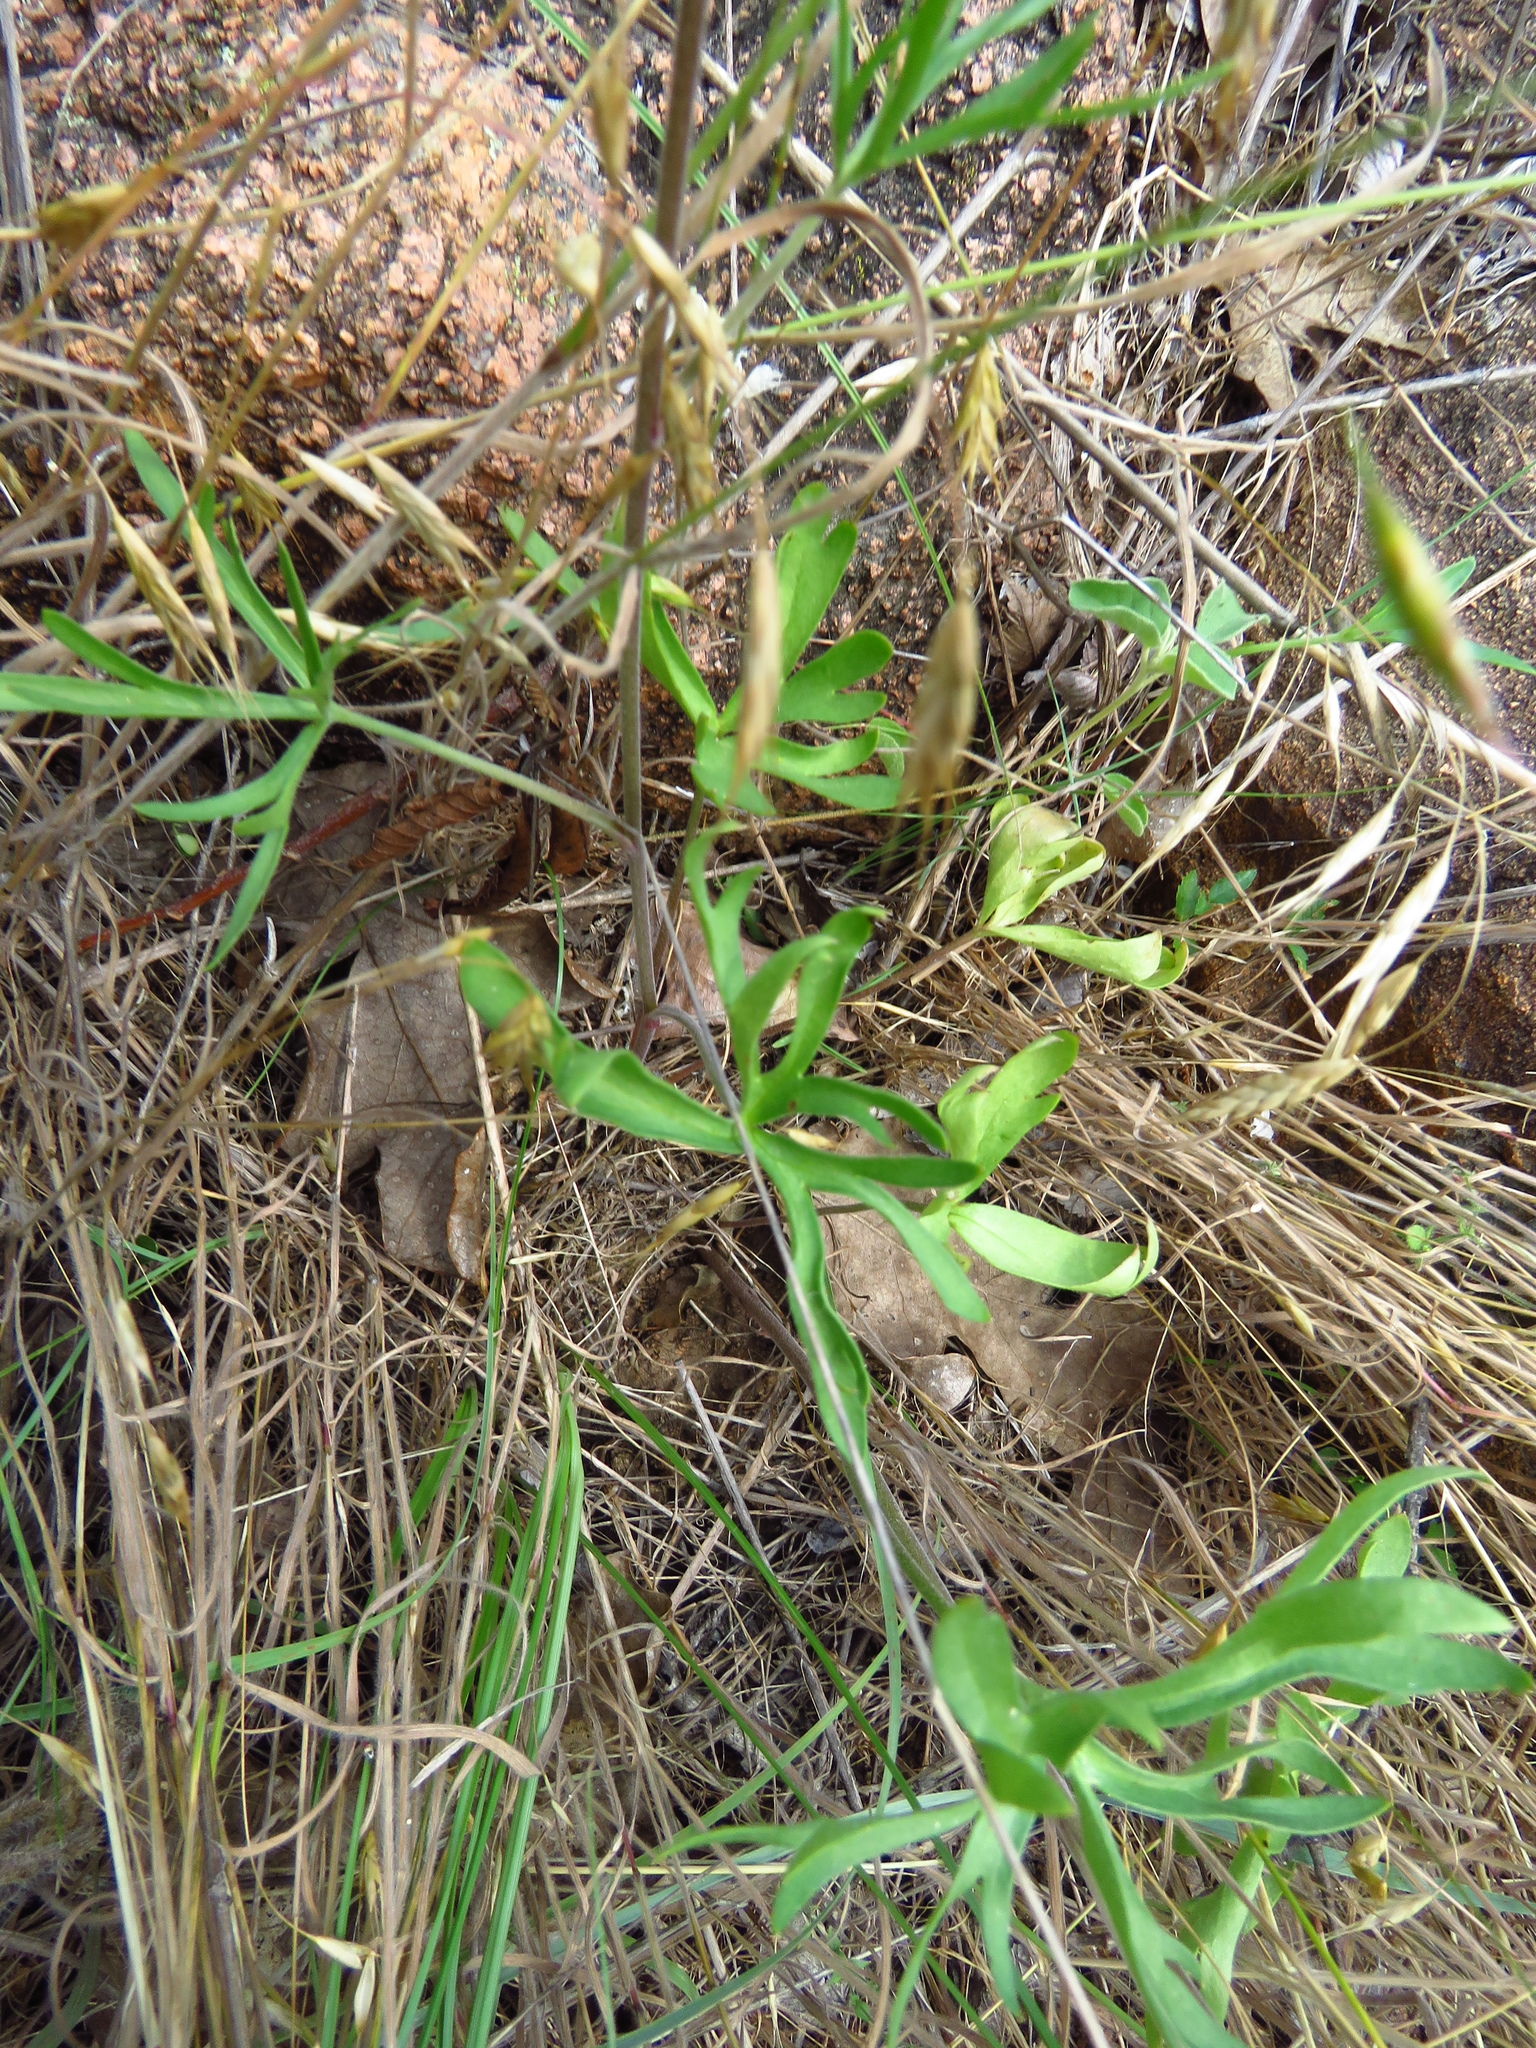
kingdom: Plantae
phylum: Tracheophyta
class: Magnoliopsida
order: Ranunculales
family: Ranunculaceae
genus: Delphinium
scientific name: Delphinium carolinianum
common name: Carolina larkspur
